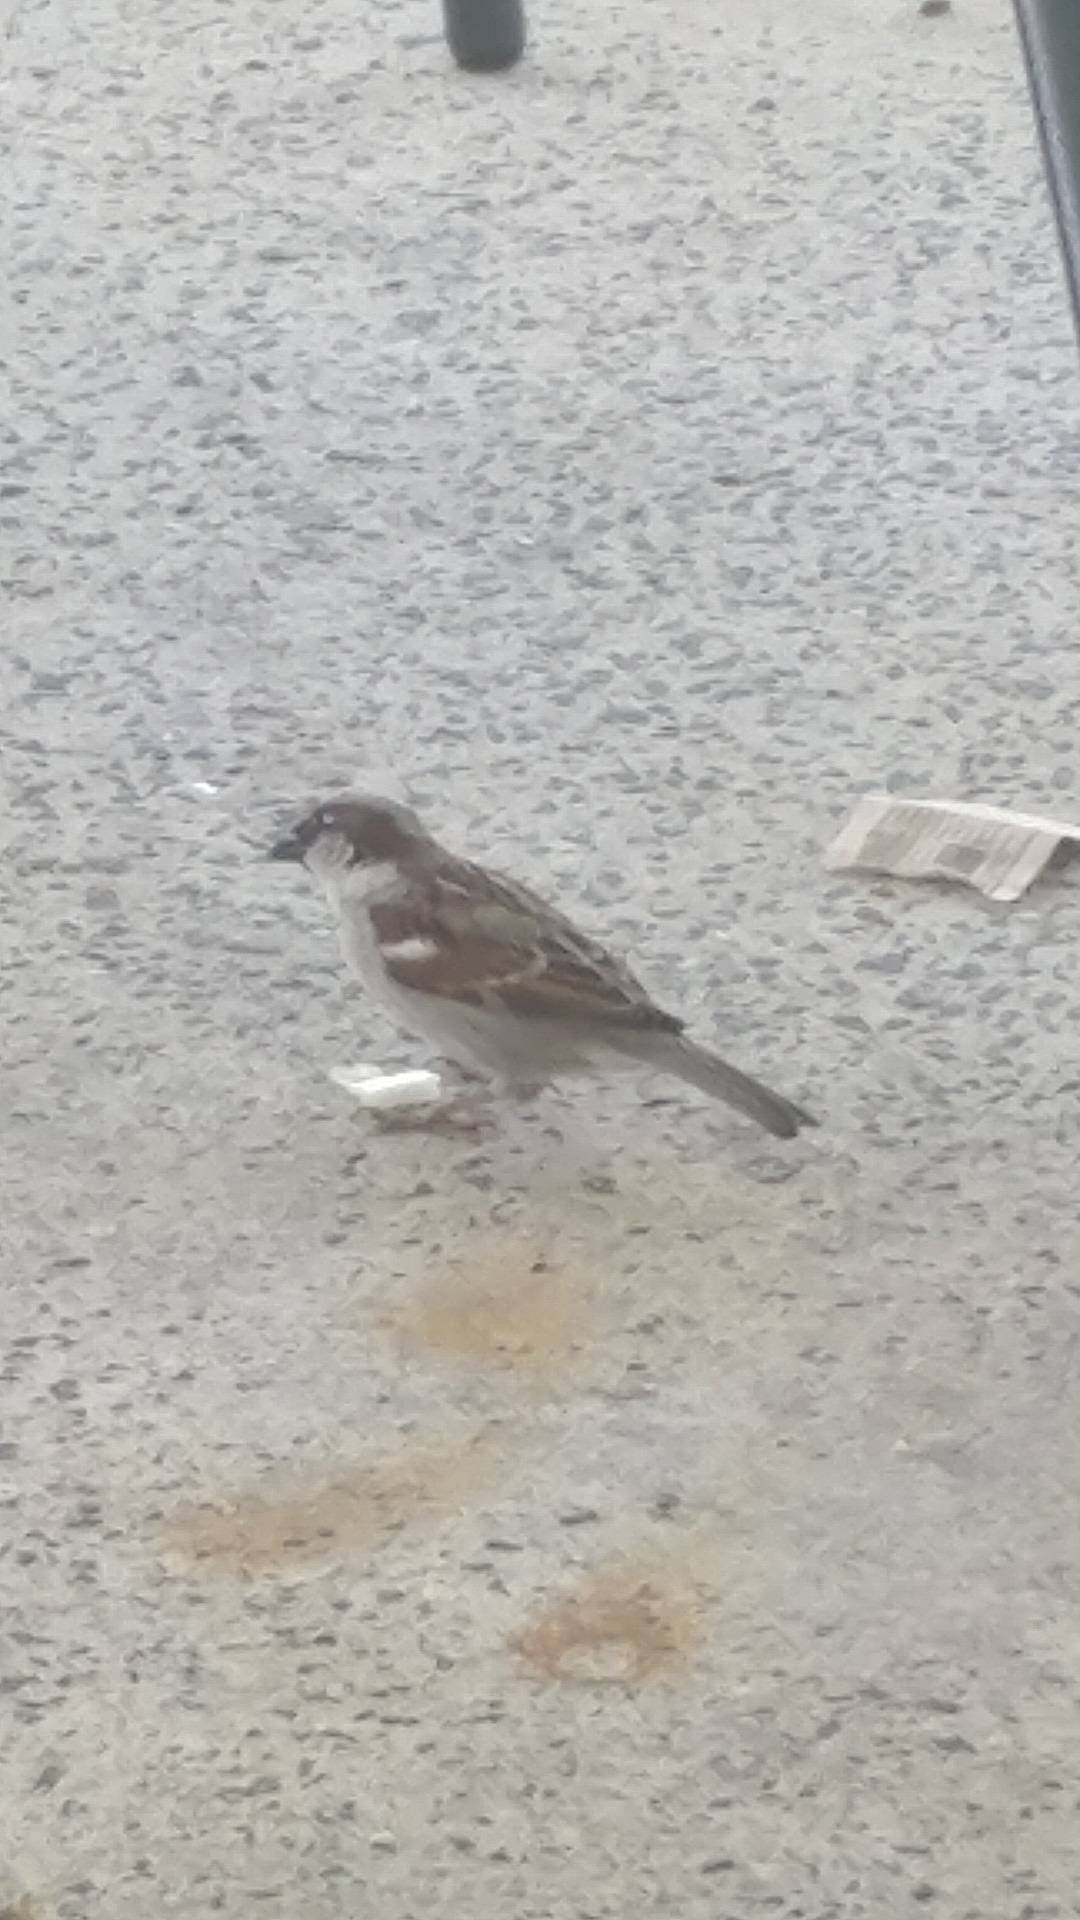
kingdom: Animalia
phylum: Chordata
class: Aves
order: Passeriformes
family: Passeridae
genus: Passer
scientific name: Passer domesticus
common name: House sparrow
